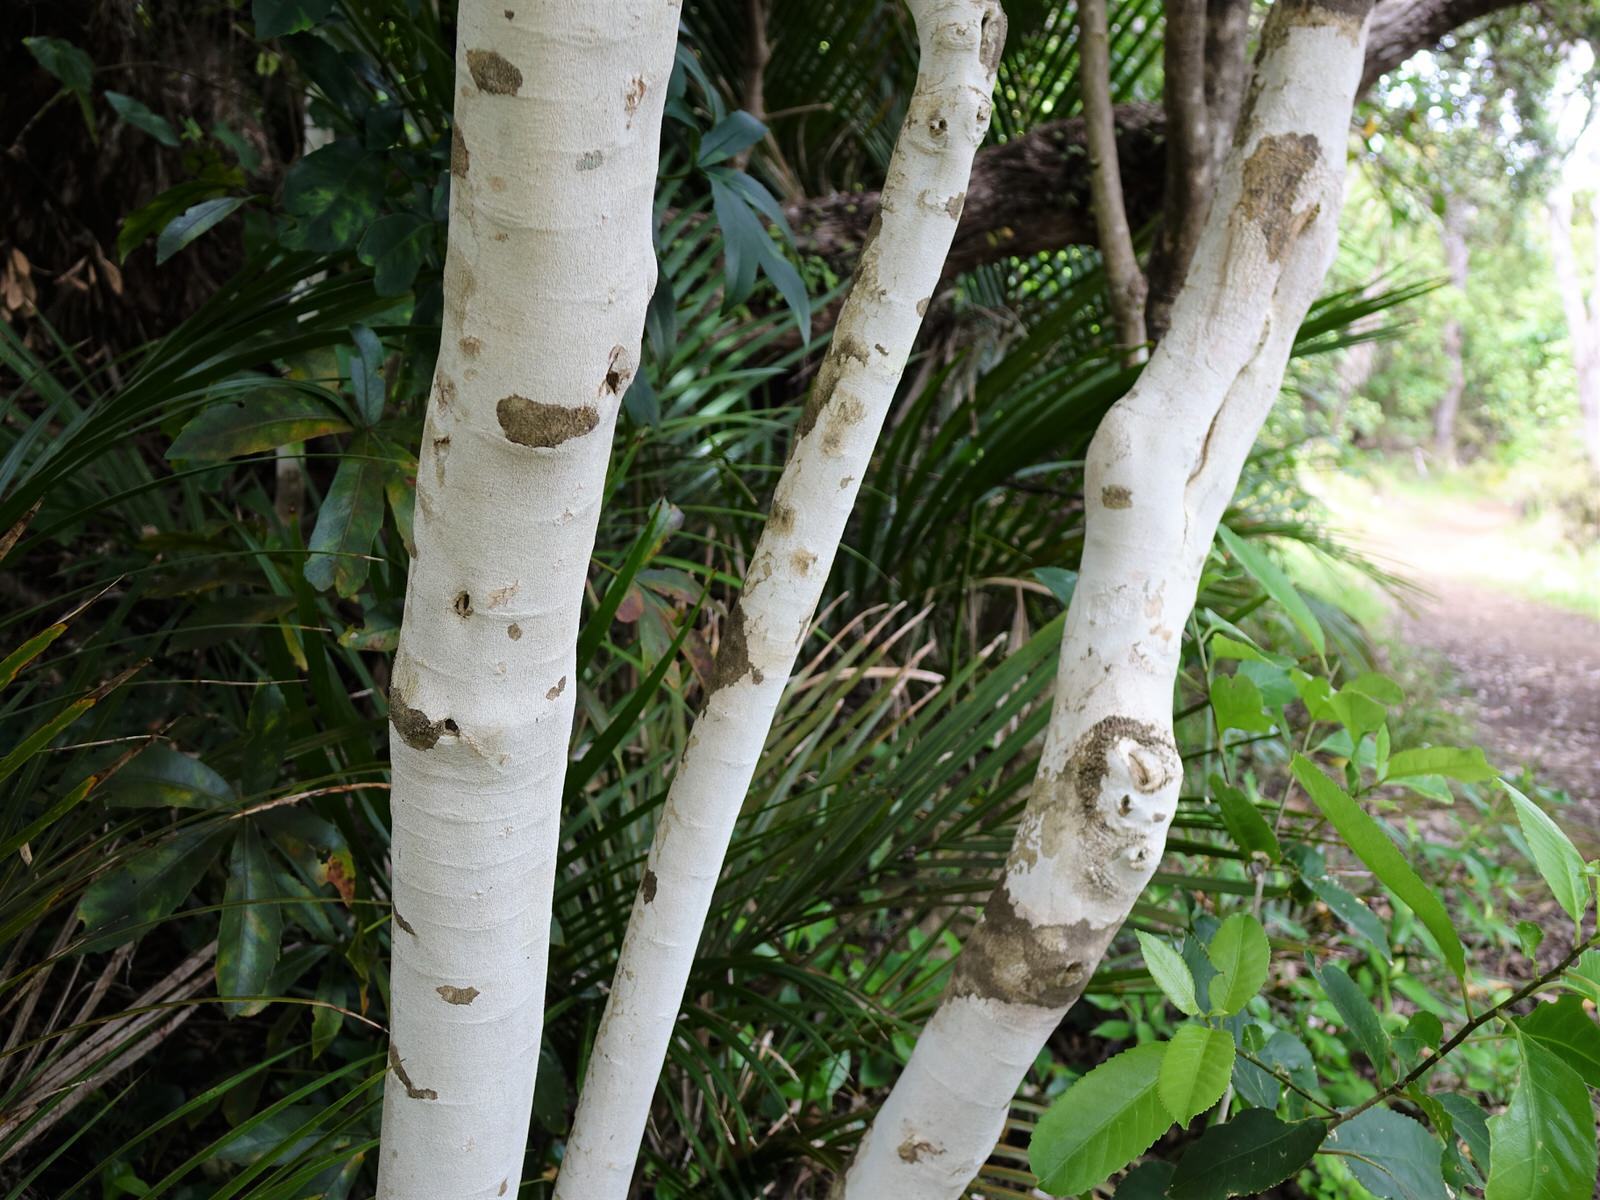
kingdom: Plantae
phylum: Tracheophyta
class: Magnoliopsida
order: Malpighiales
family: Violaceae
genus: Melicytus
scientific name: Melicytus ramiflorus
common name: Mahoe
